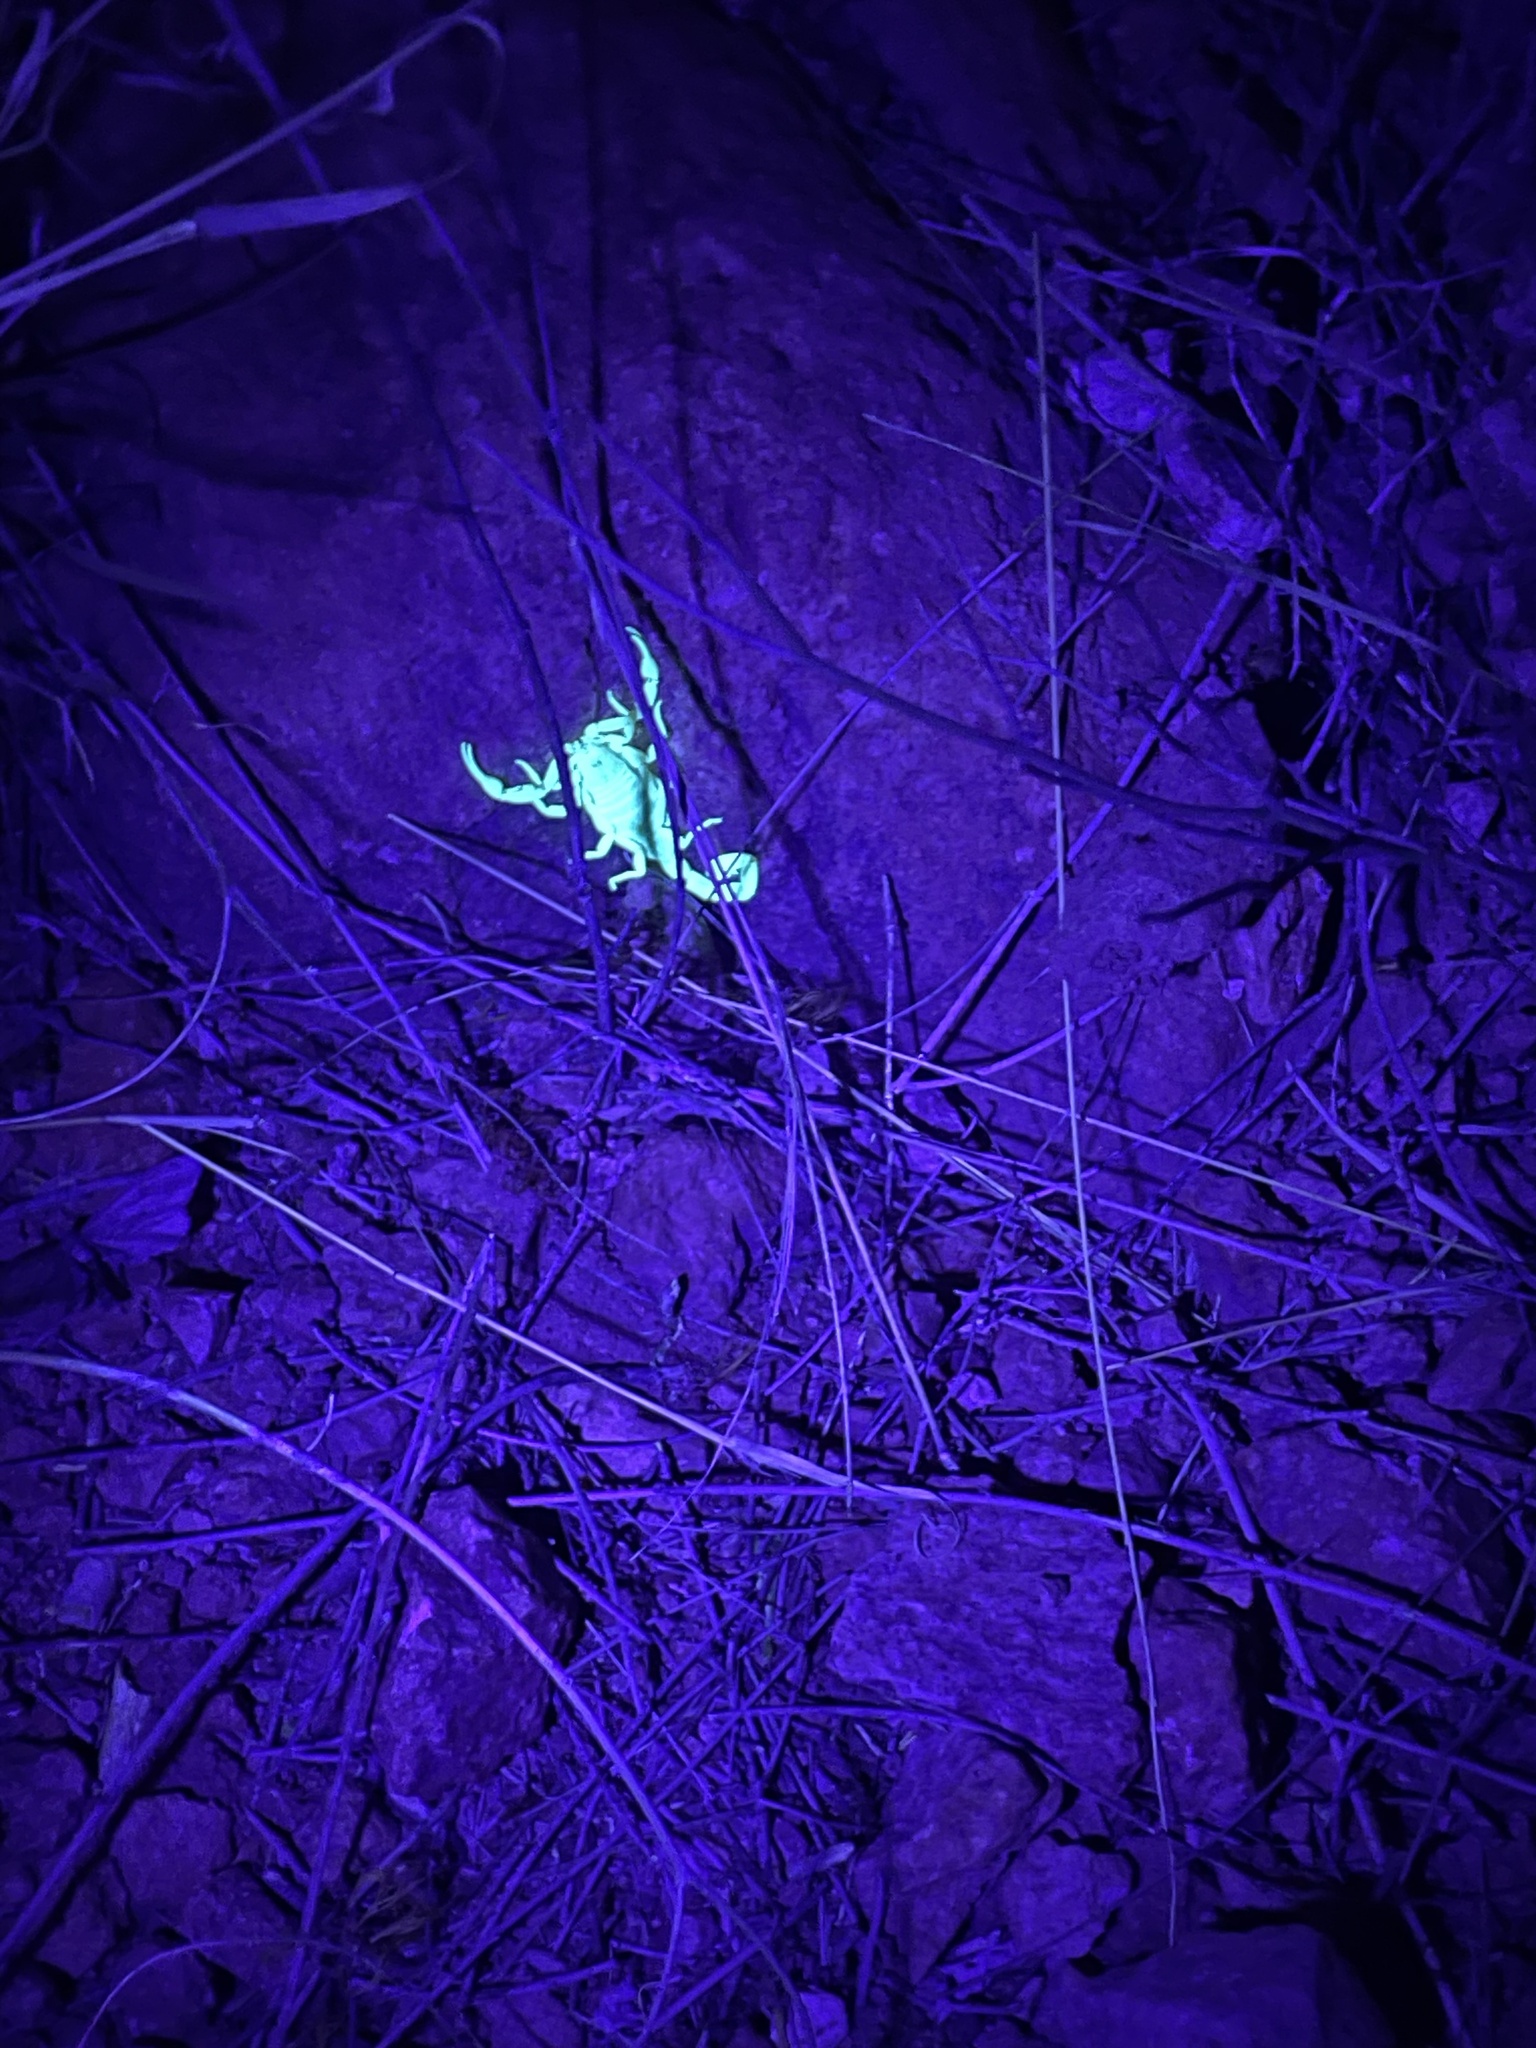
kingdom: Animalia
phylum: Arthropoda
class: Arachnida
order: Scorpiones
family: Buthidae
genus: Centruroides
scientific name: Centruroides sculpturatus
